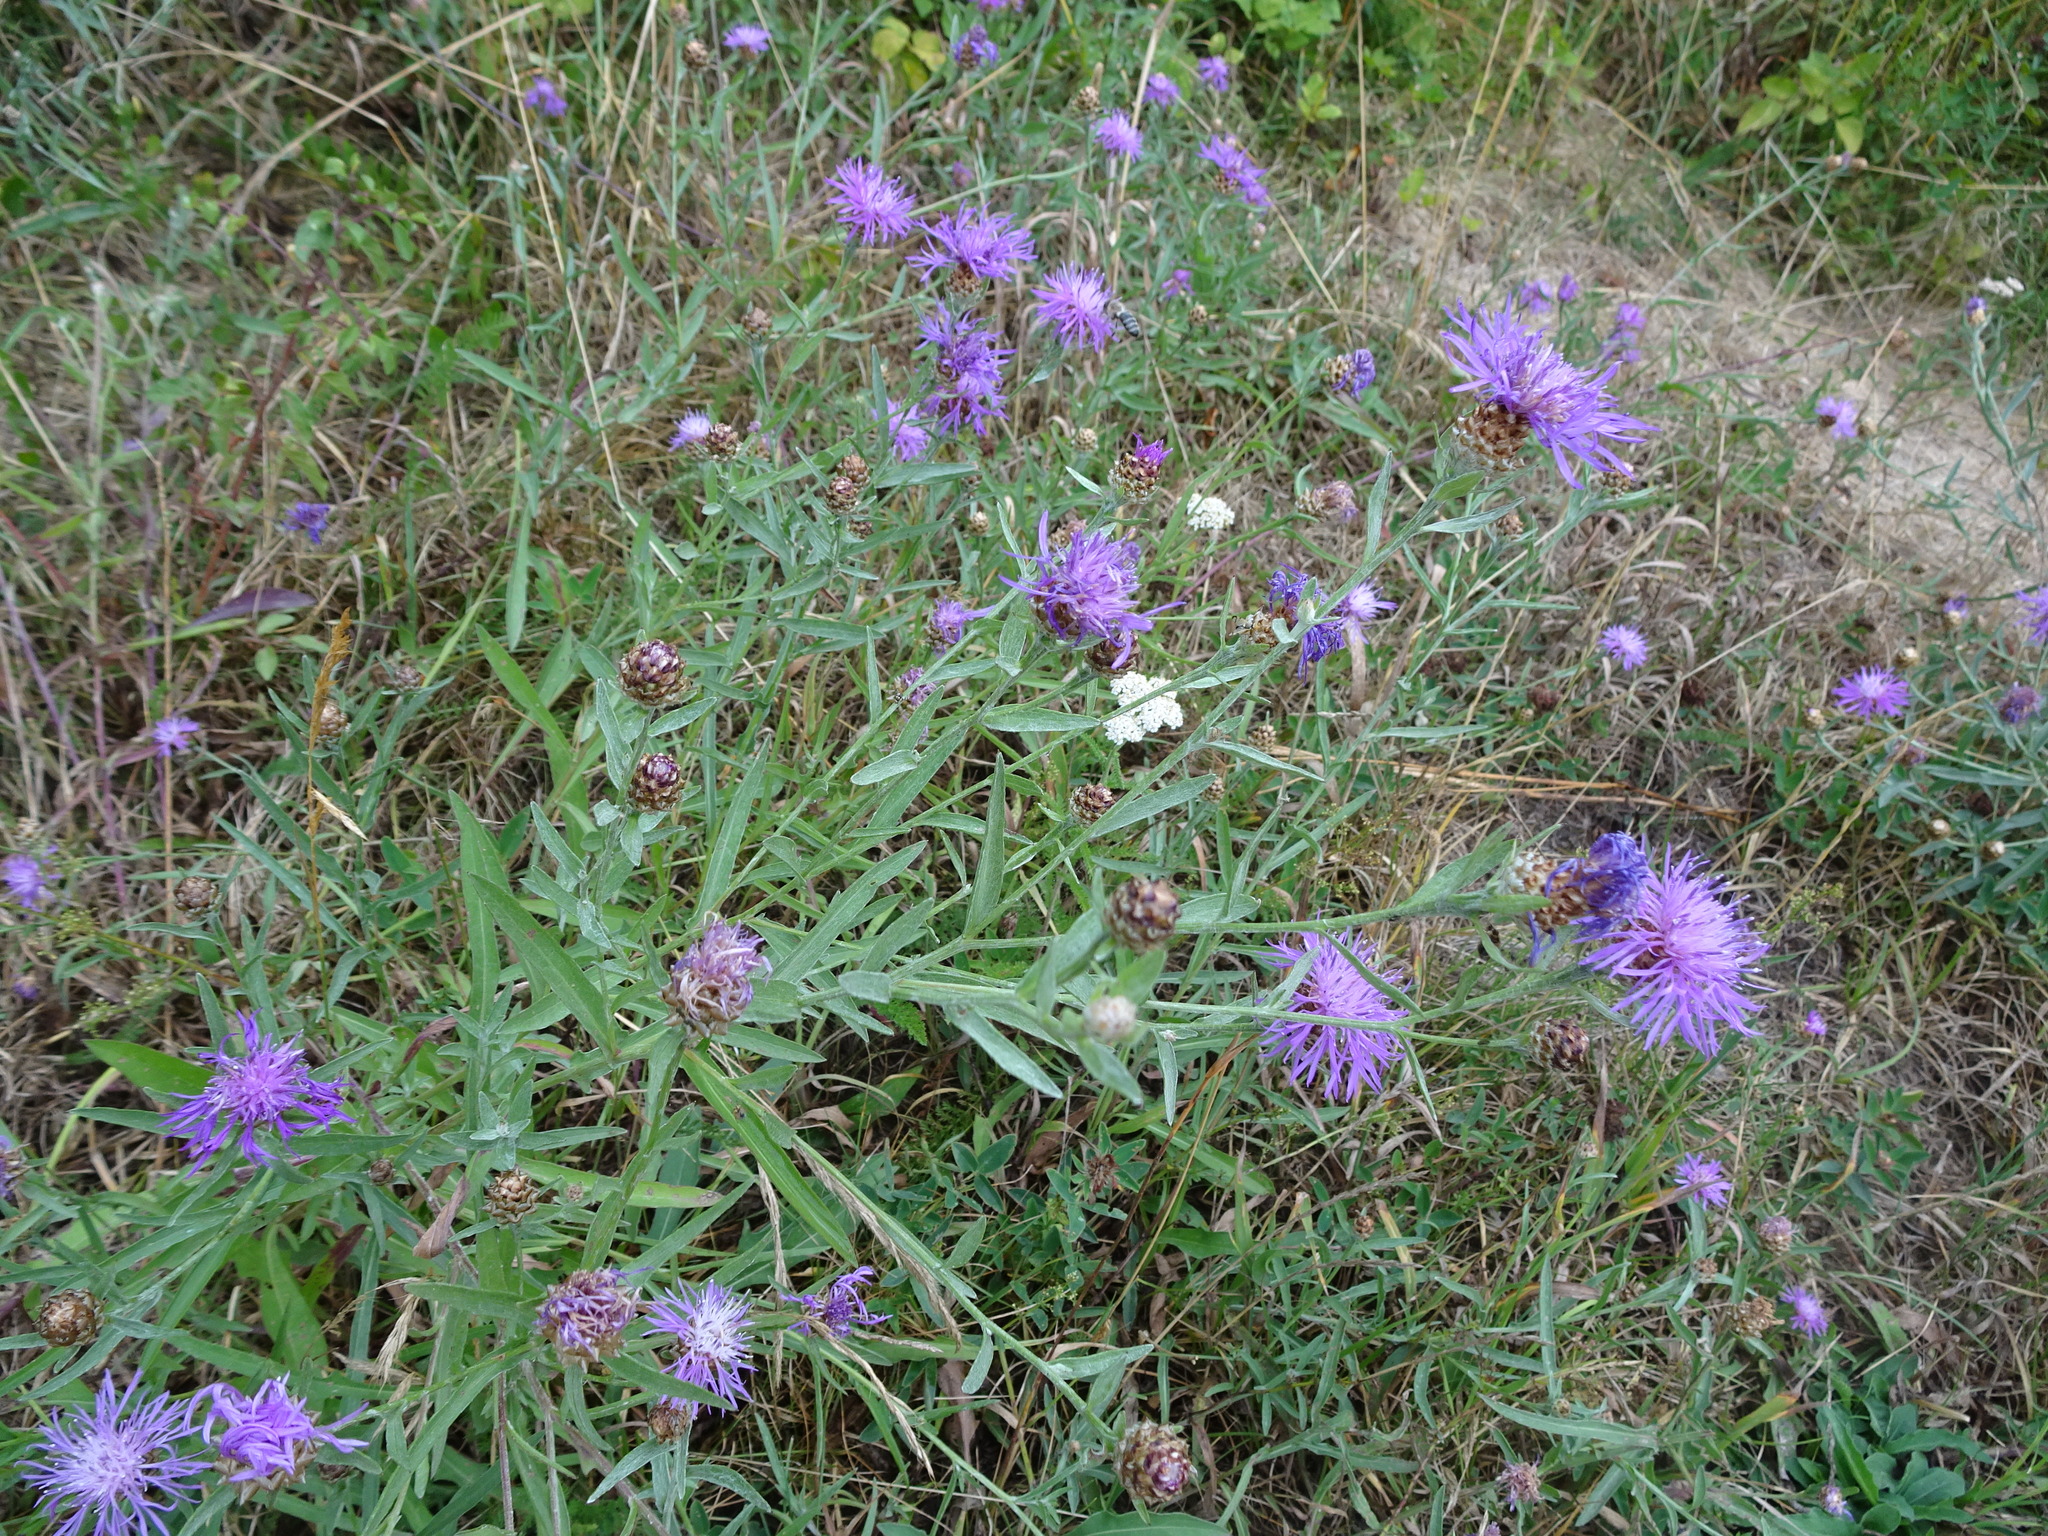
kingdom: Plantae
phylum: Tracheophyta
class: Magnoliopsida
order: Asterales
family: Asteraceae
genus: Centaurea
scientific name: Centaurea jacea
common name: Brown knapweed
